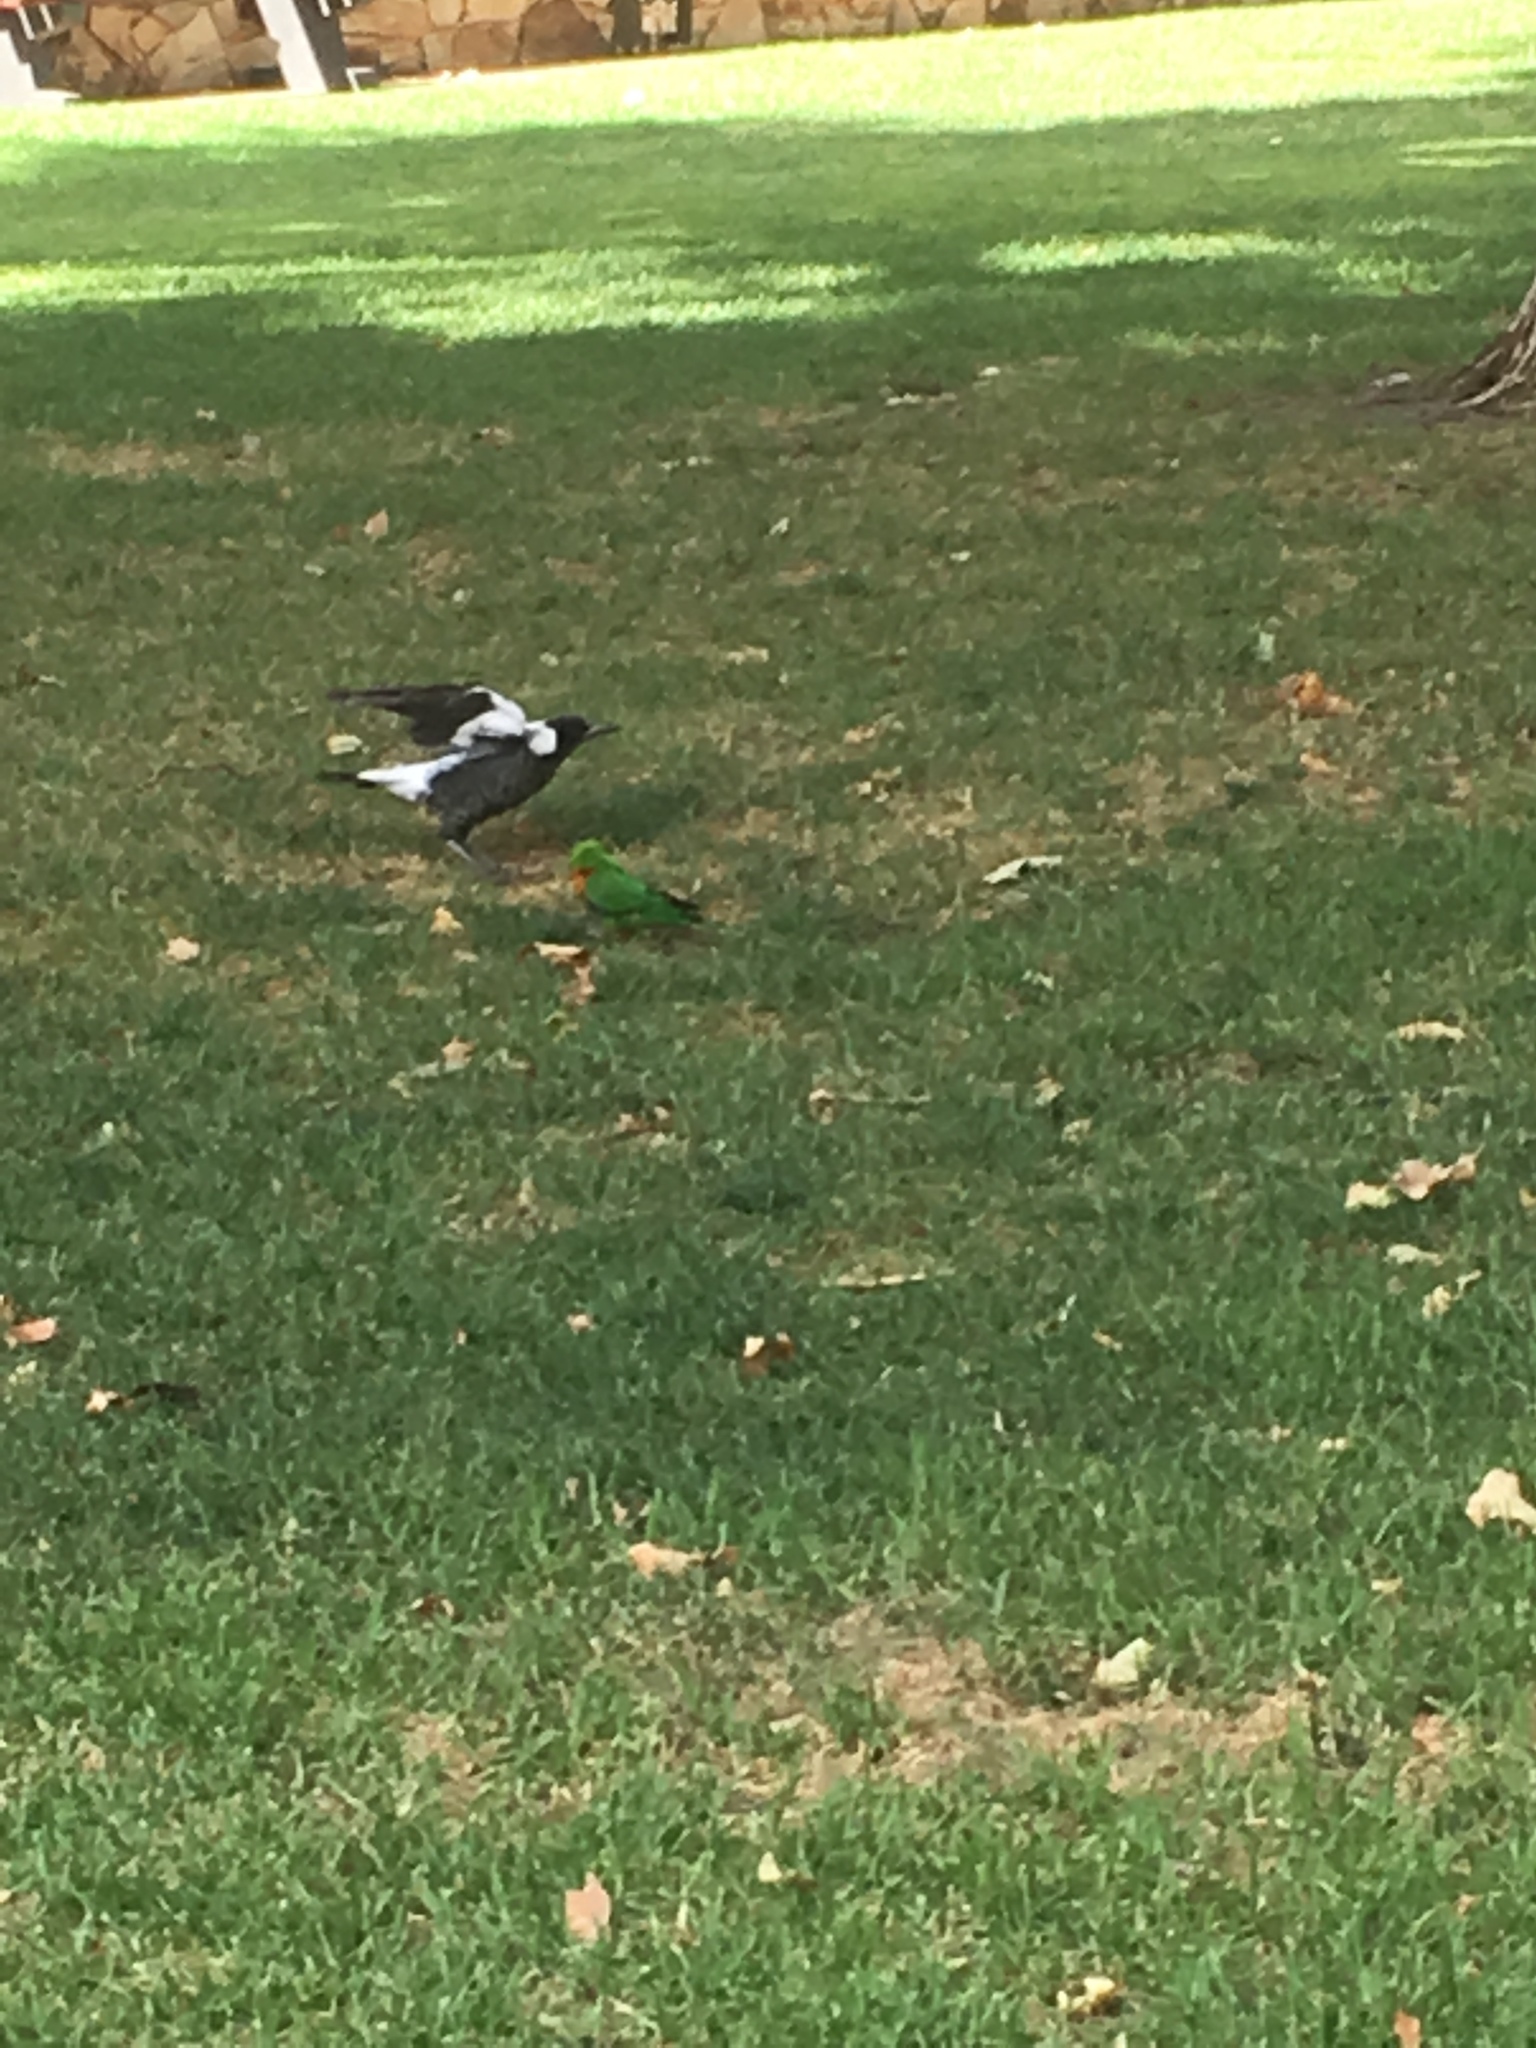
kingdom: Animalia
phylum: Chordata
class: Aves
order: Psittaciformes
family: Psittacidae
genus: Trichoglossus
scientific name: Trichoglossus haematodus
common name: Coconut lorikeet
